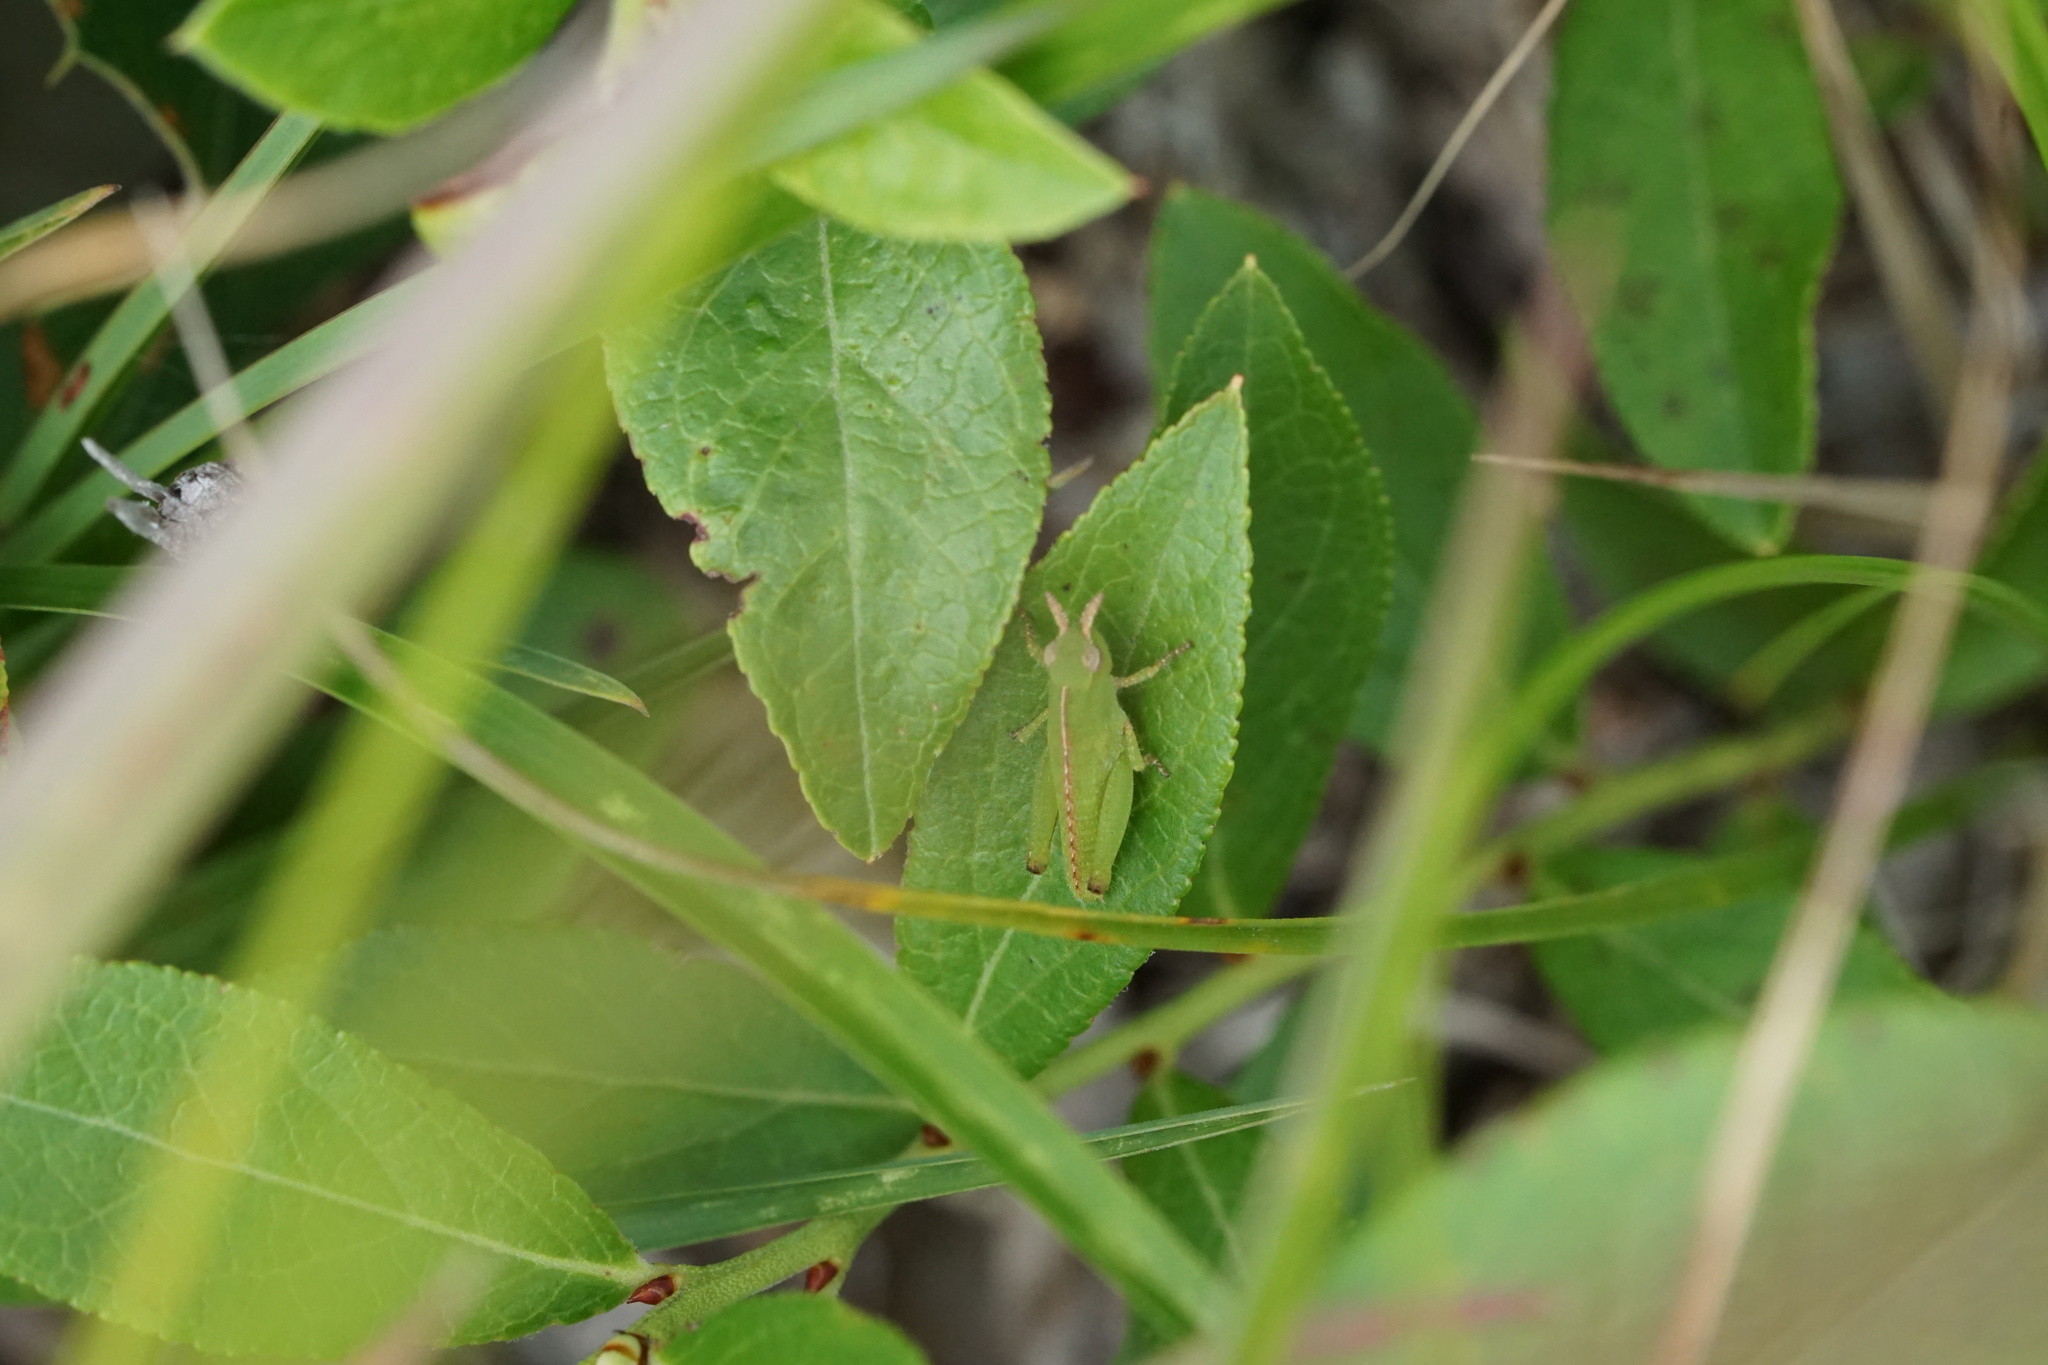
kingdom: Animalia
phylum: Arthropoda
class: Insecta
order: Orthoptera
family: Acrididae
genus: Chortophaga
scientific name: Chortophaga viridifasciata
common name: Green-striped grasshopper
